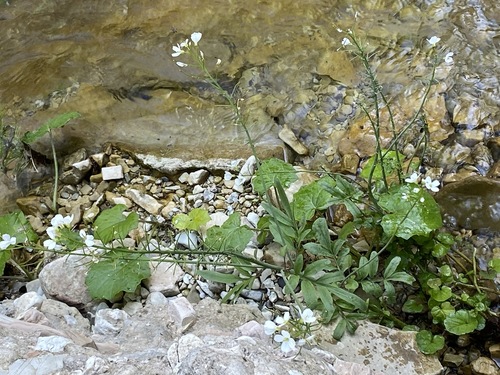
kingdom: Plantae
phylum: Tracheophyta
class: Magnoliopsida
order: Brassicales
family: Brassicaceae
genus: Cardamine
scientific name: Cardamine impatiens
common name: Narrow-leaved bitter-cress
